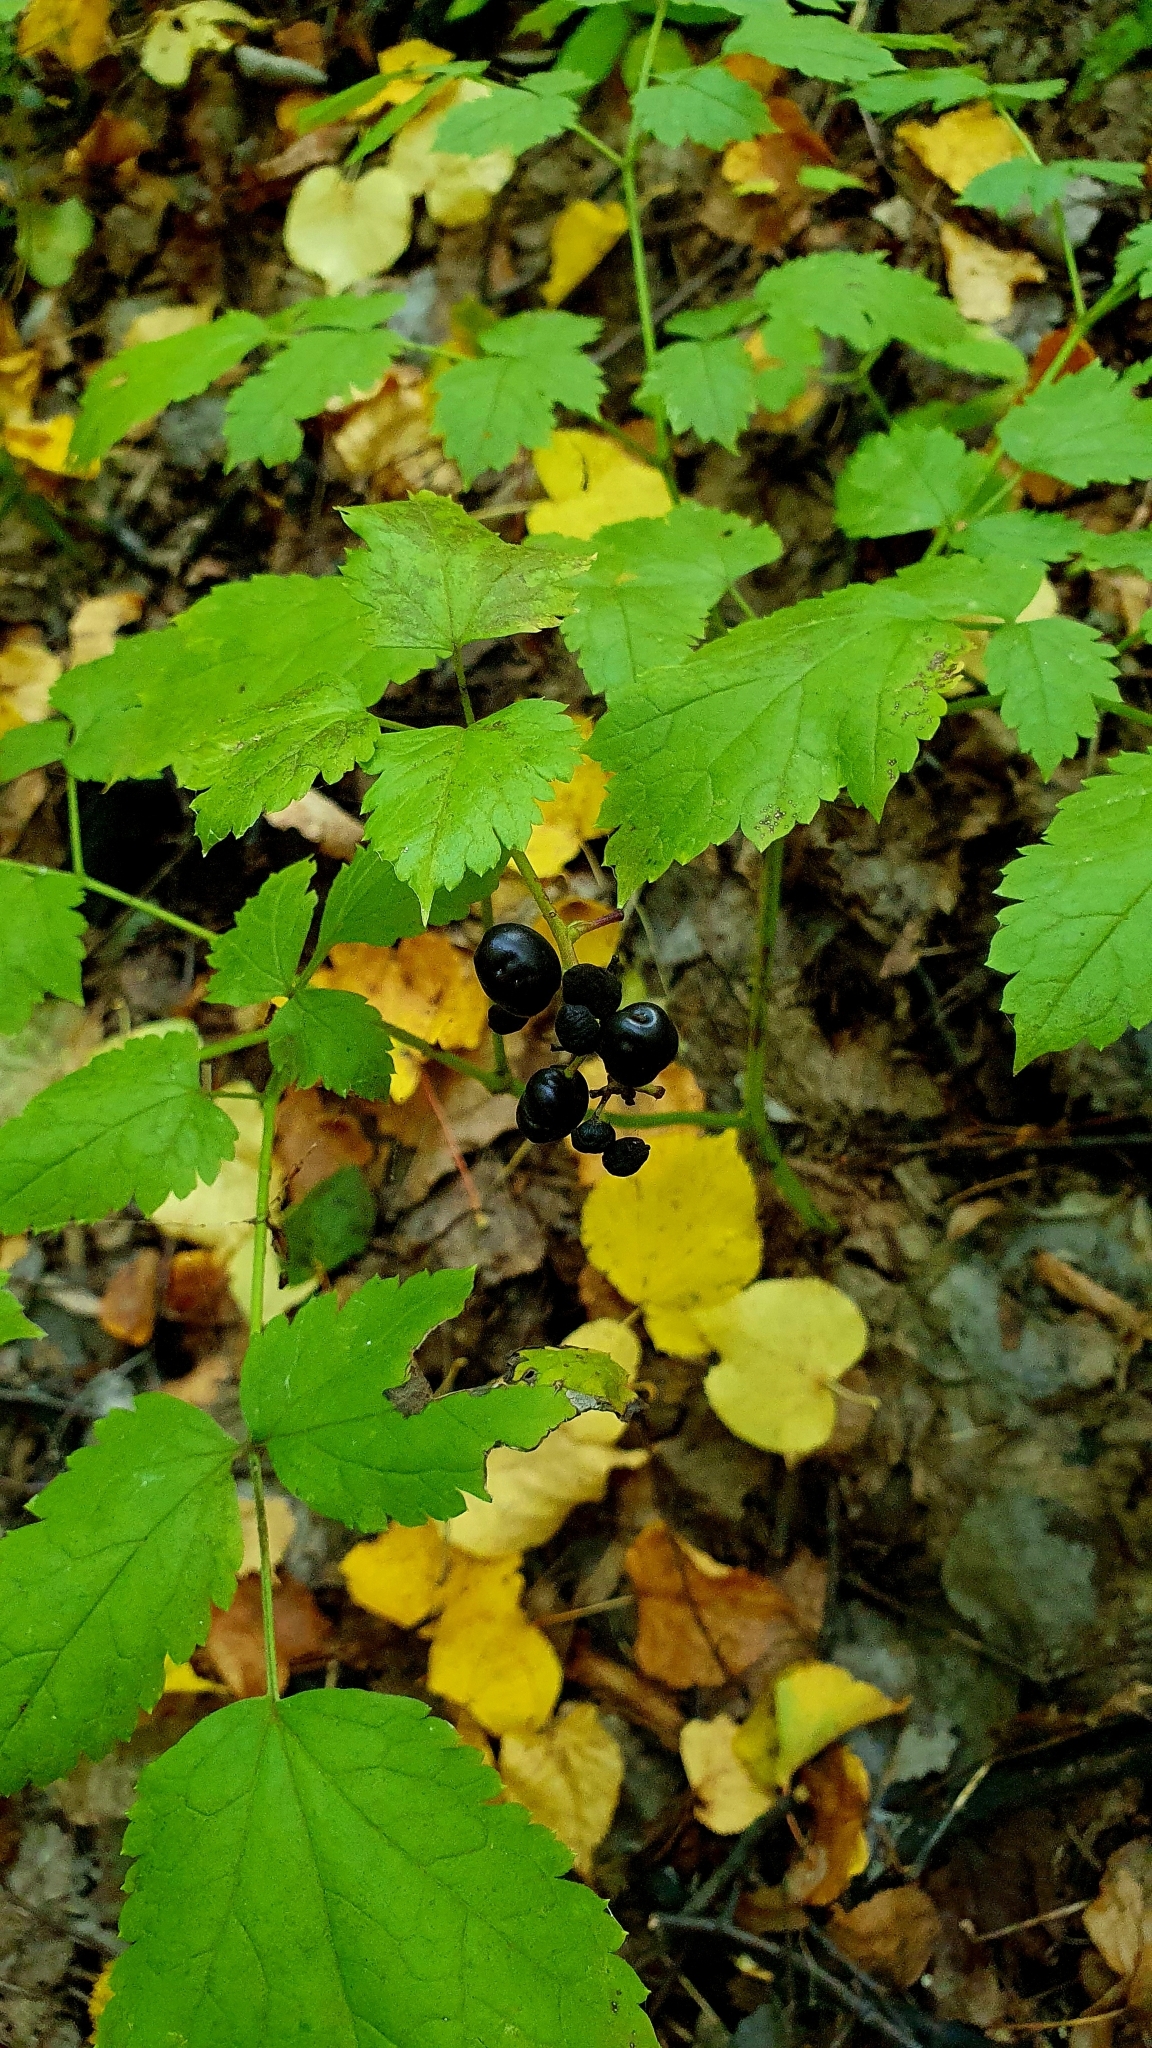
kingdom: Plantae
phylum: Tracheophyta
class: Magnoliopsida
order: Ranunculales
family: Ranunculaceae
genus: Actaea
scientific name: Actaea spicata
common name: Baneberry
